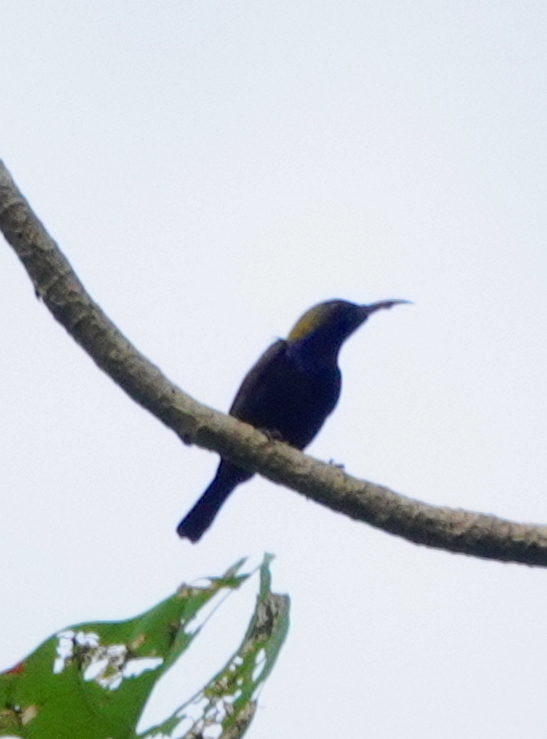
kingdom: Animalia
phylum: Chordata
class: Aves
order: Passeriformes
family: Nectariniidae
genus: Leptocoma
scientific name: Leptocoma sericea
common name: Black sunbird
